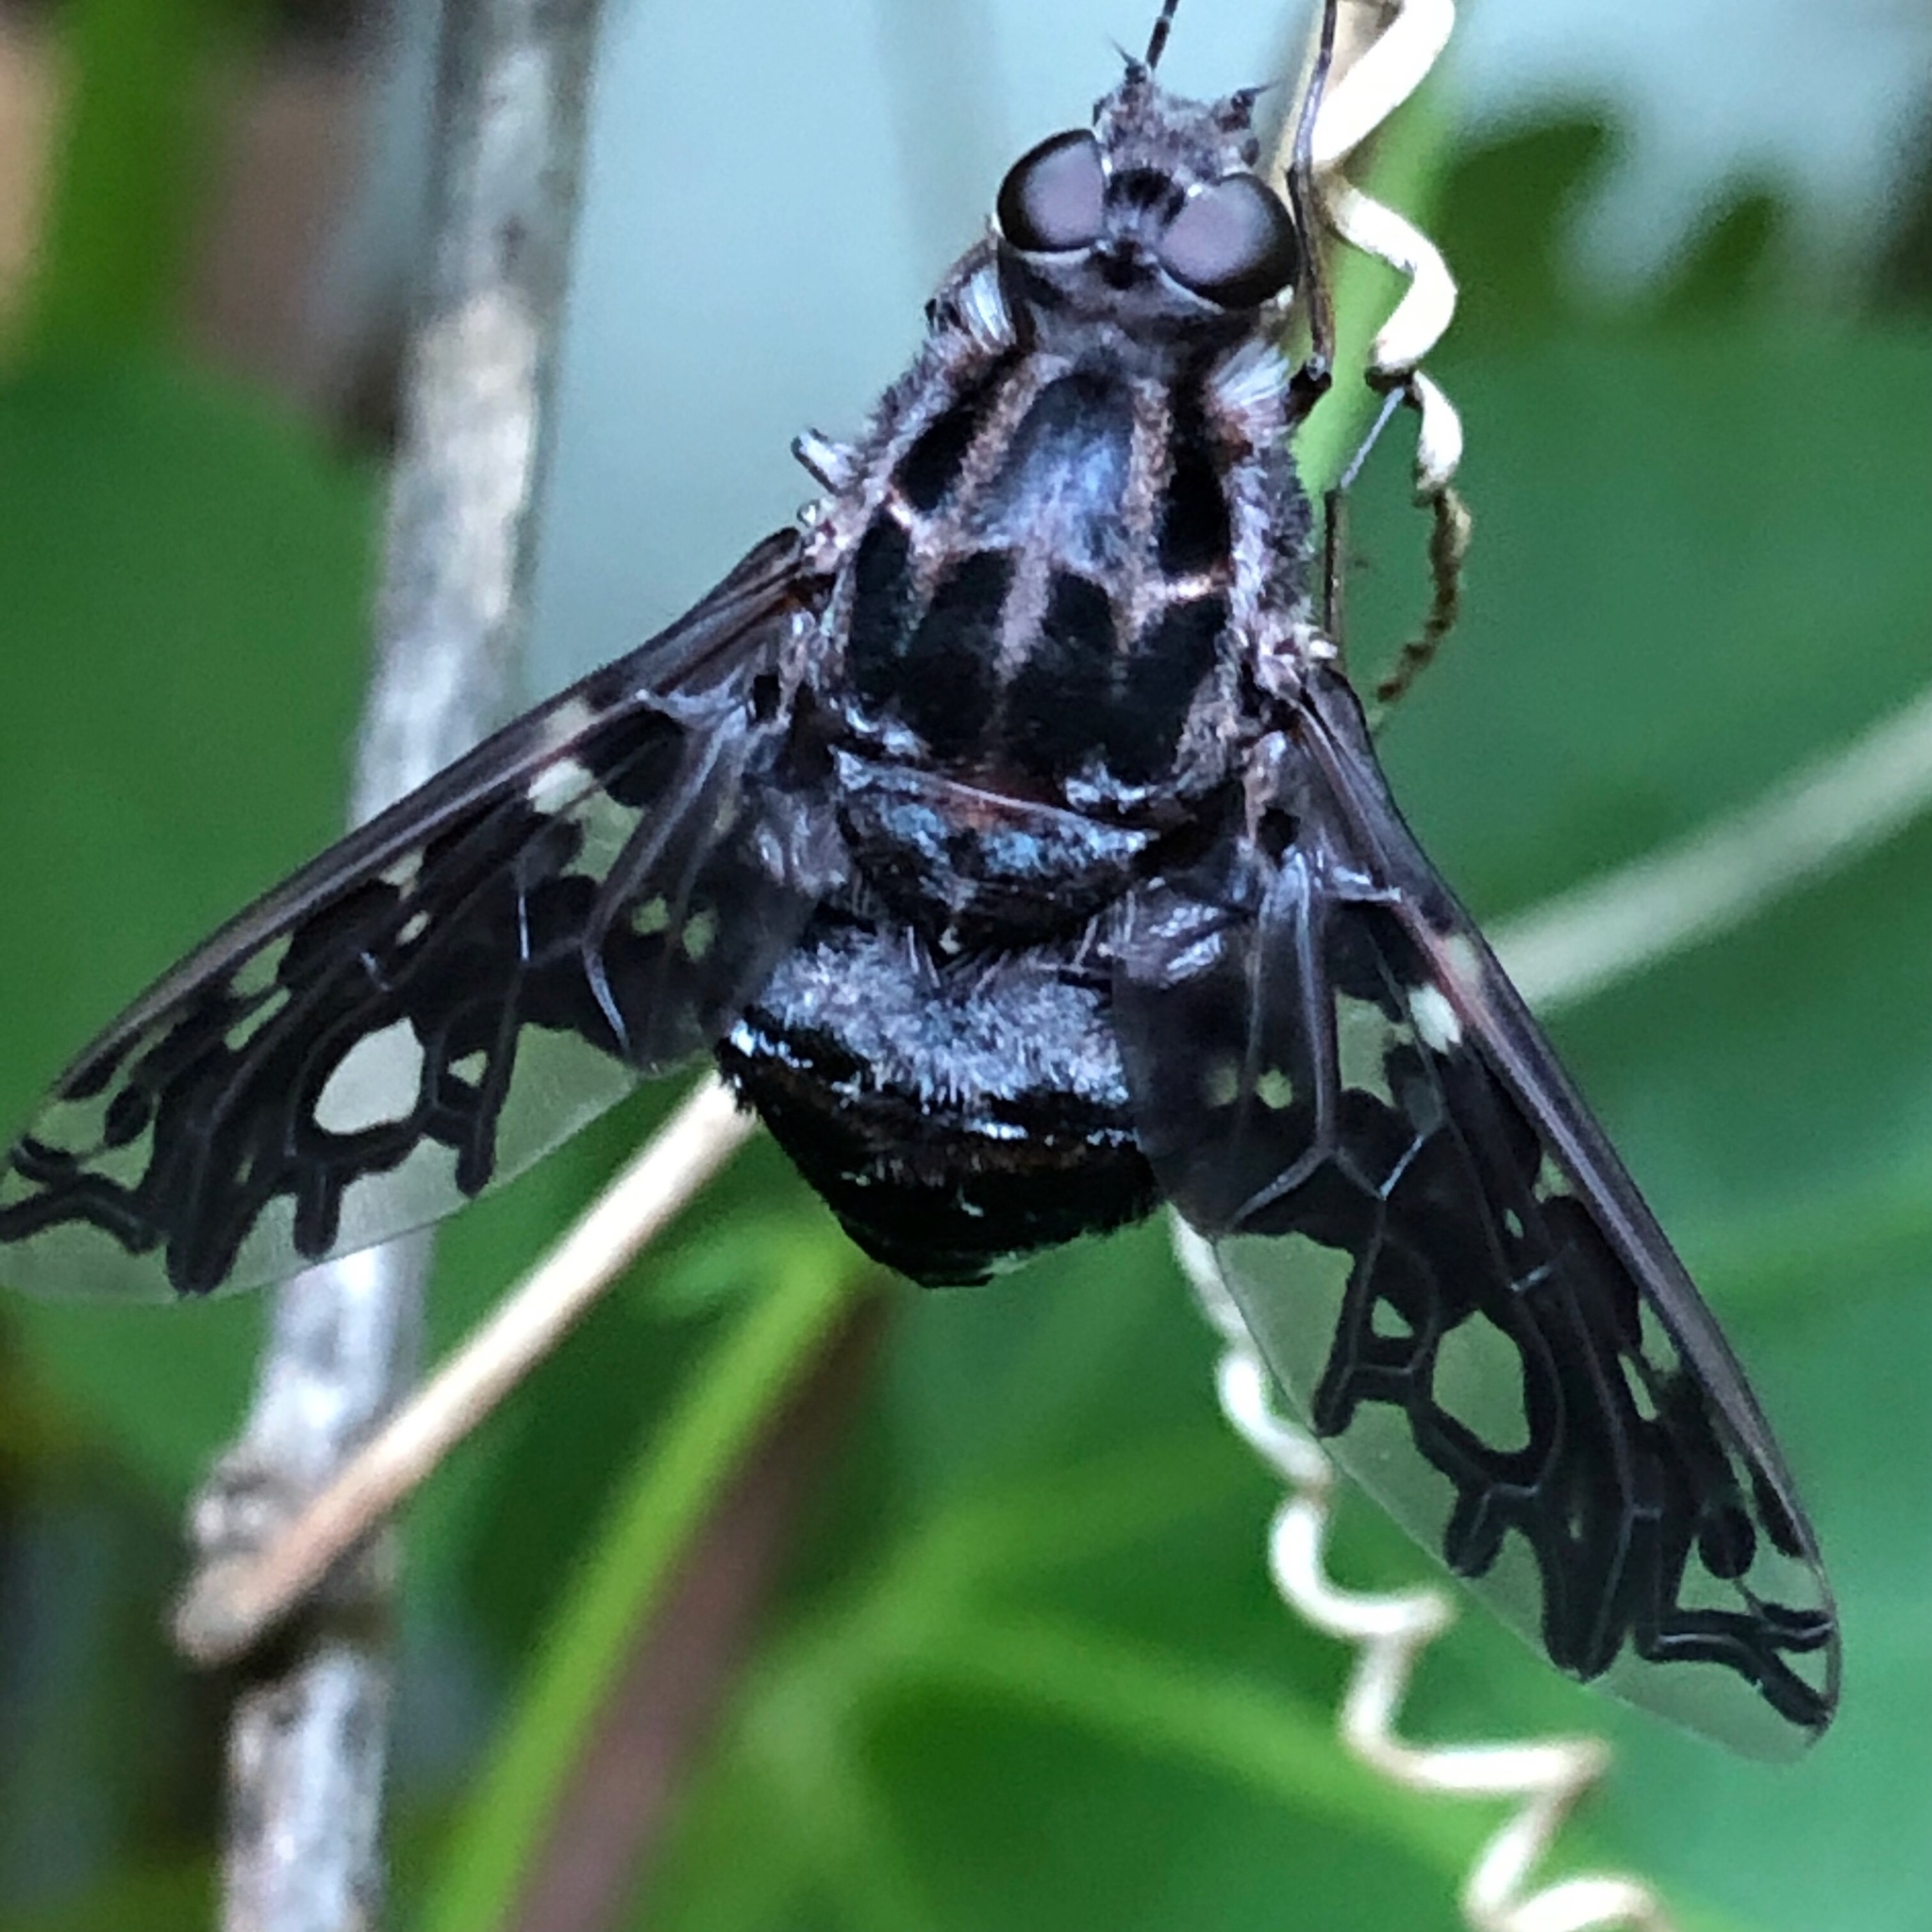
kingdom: Animalia
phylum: Arthropoda
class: Insecta
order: Diptera
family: Bombyliidae
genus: Xenox
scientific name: Xenox tigrinus
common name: Tiger bee fly
